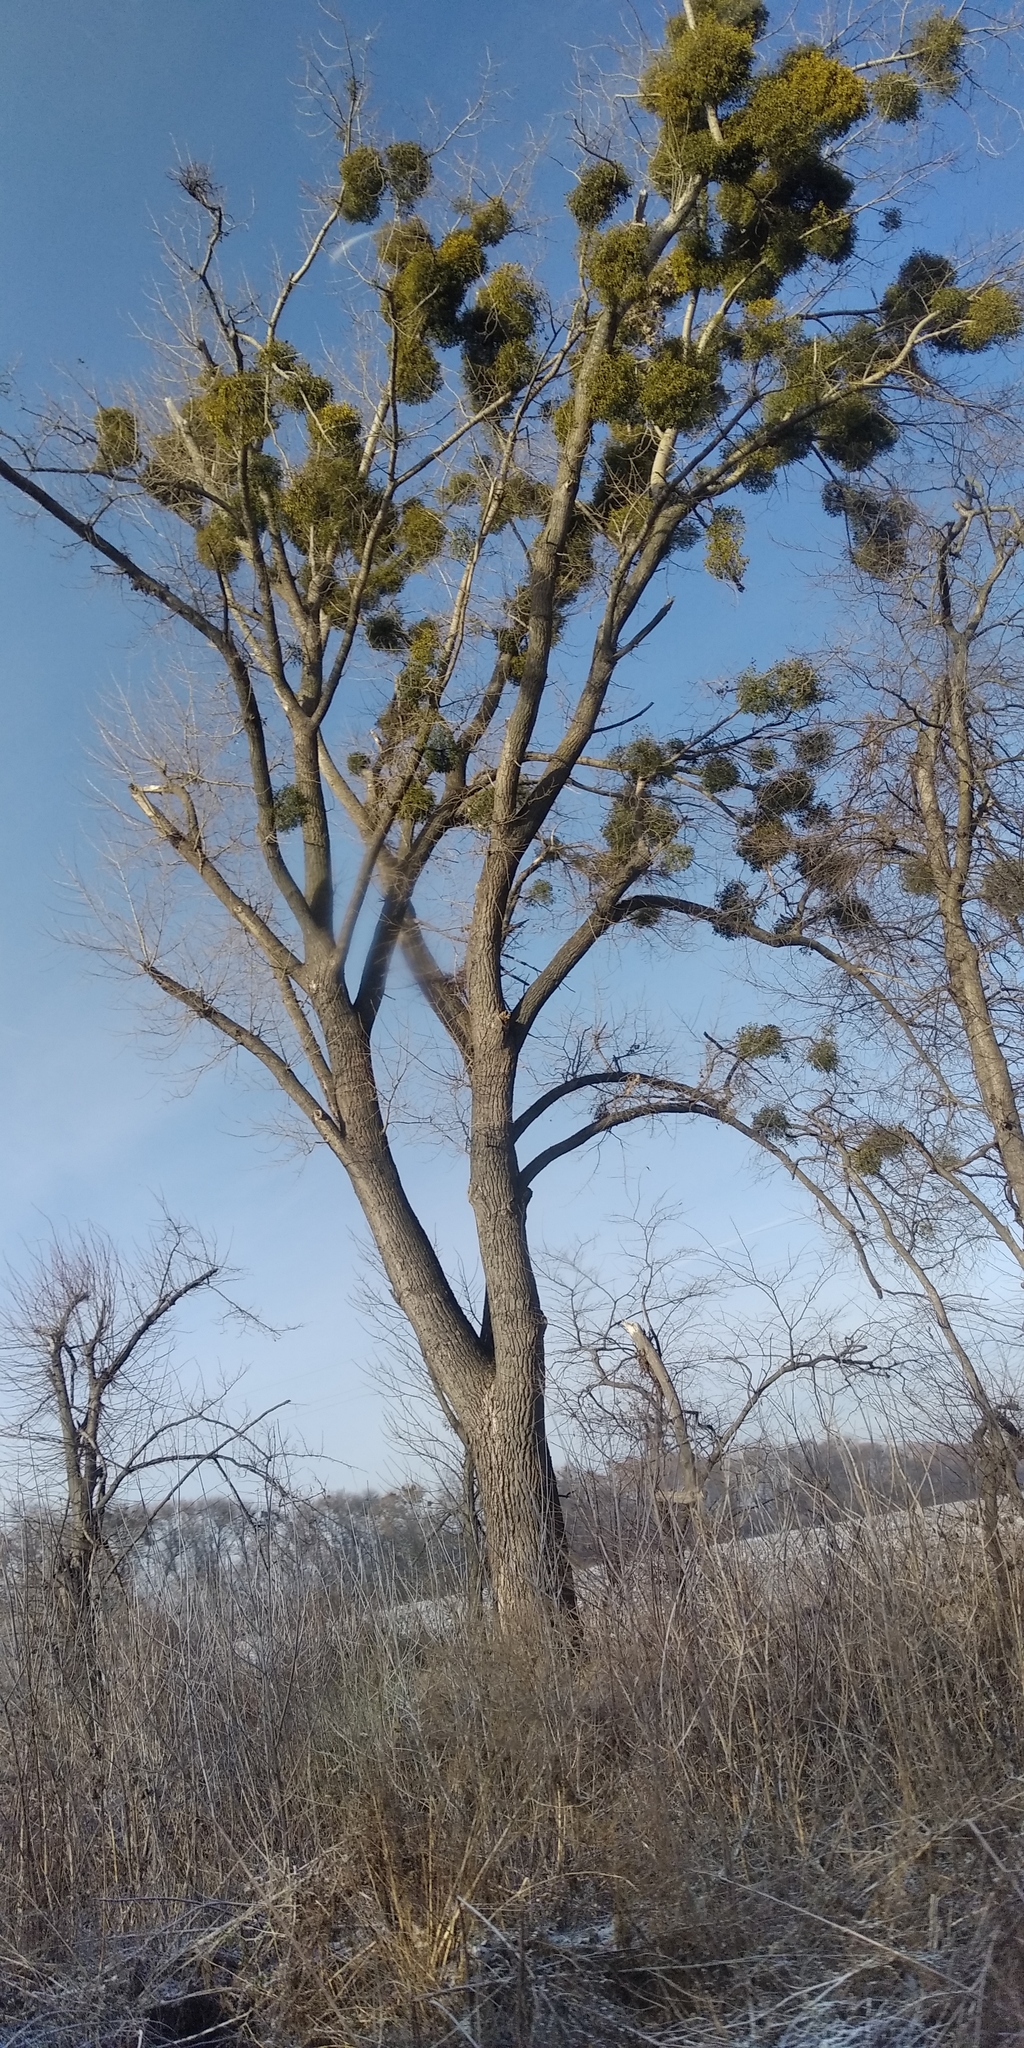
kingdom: Plantae
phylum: Tracheophyta
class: Magnoliopsida
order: Santalales
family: Viscaceae
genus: Viscum
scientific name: Viscum album
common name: Mistletoe
